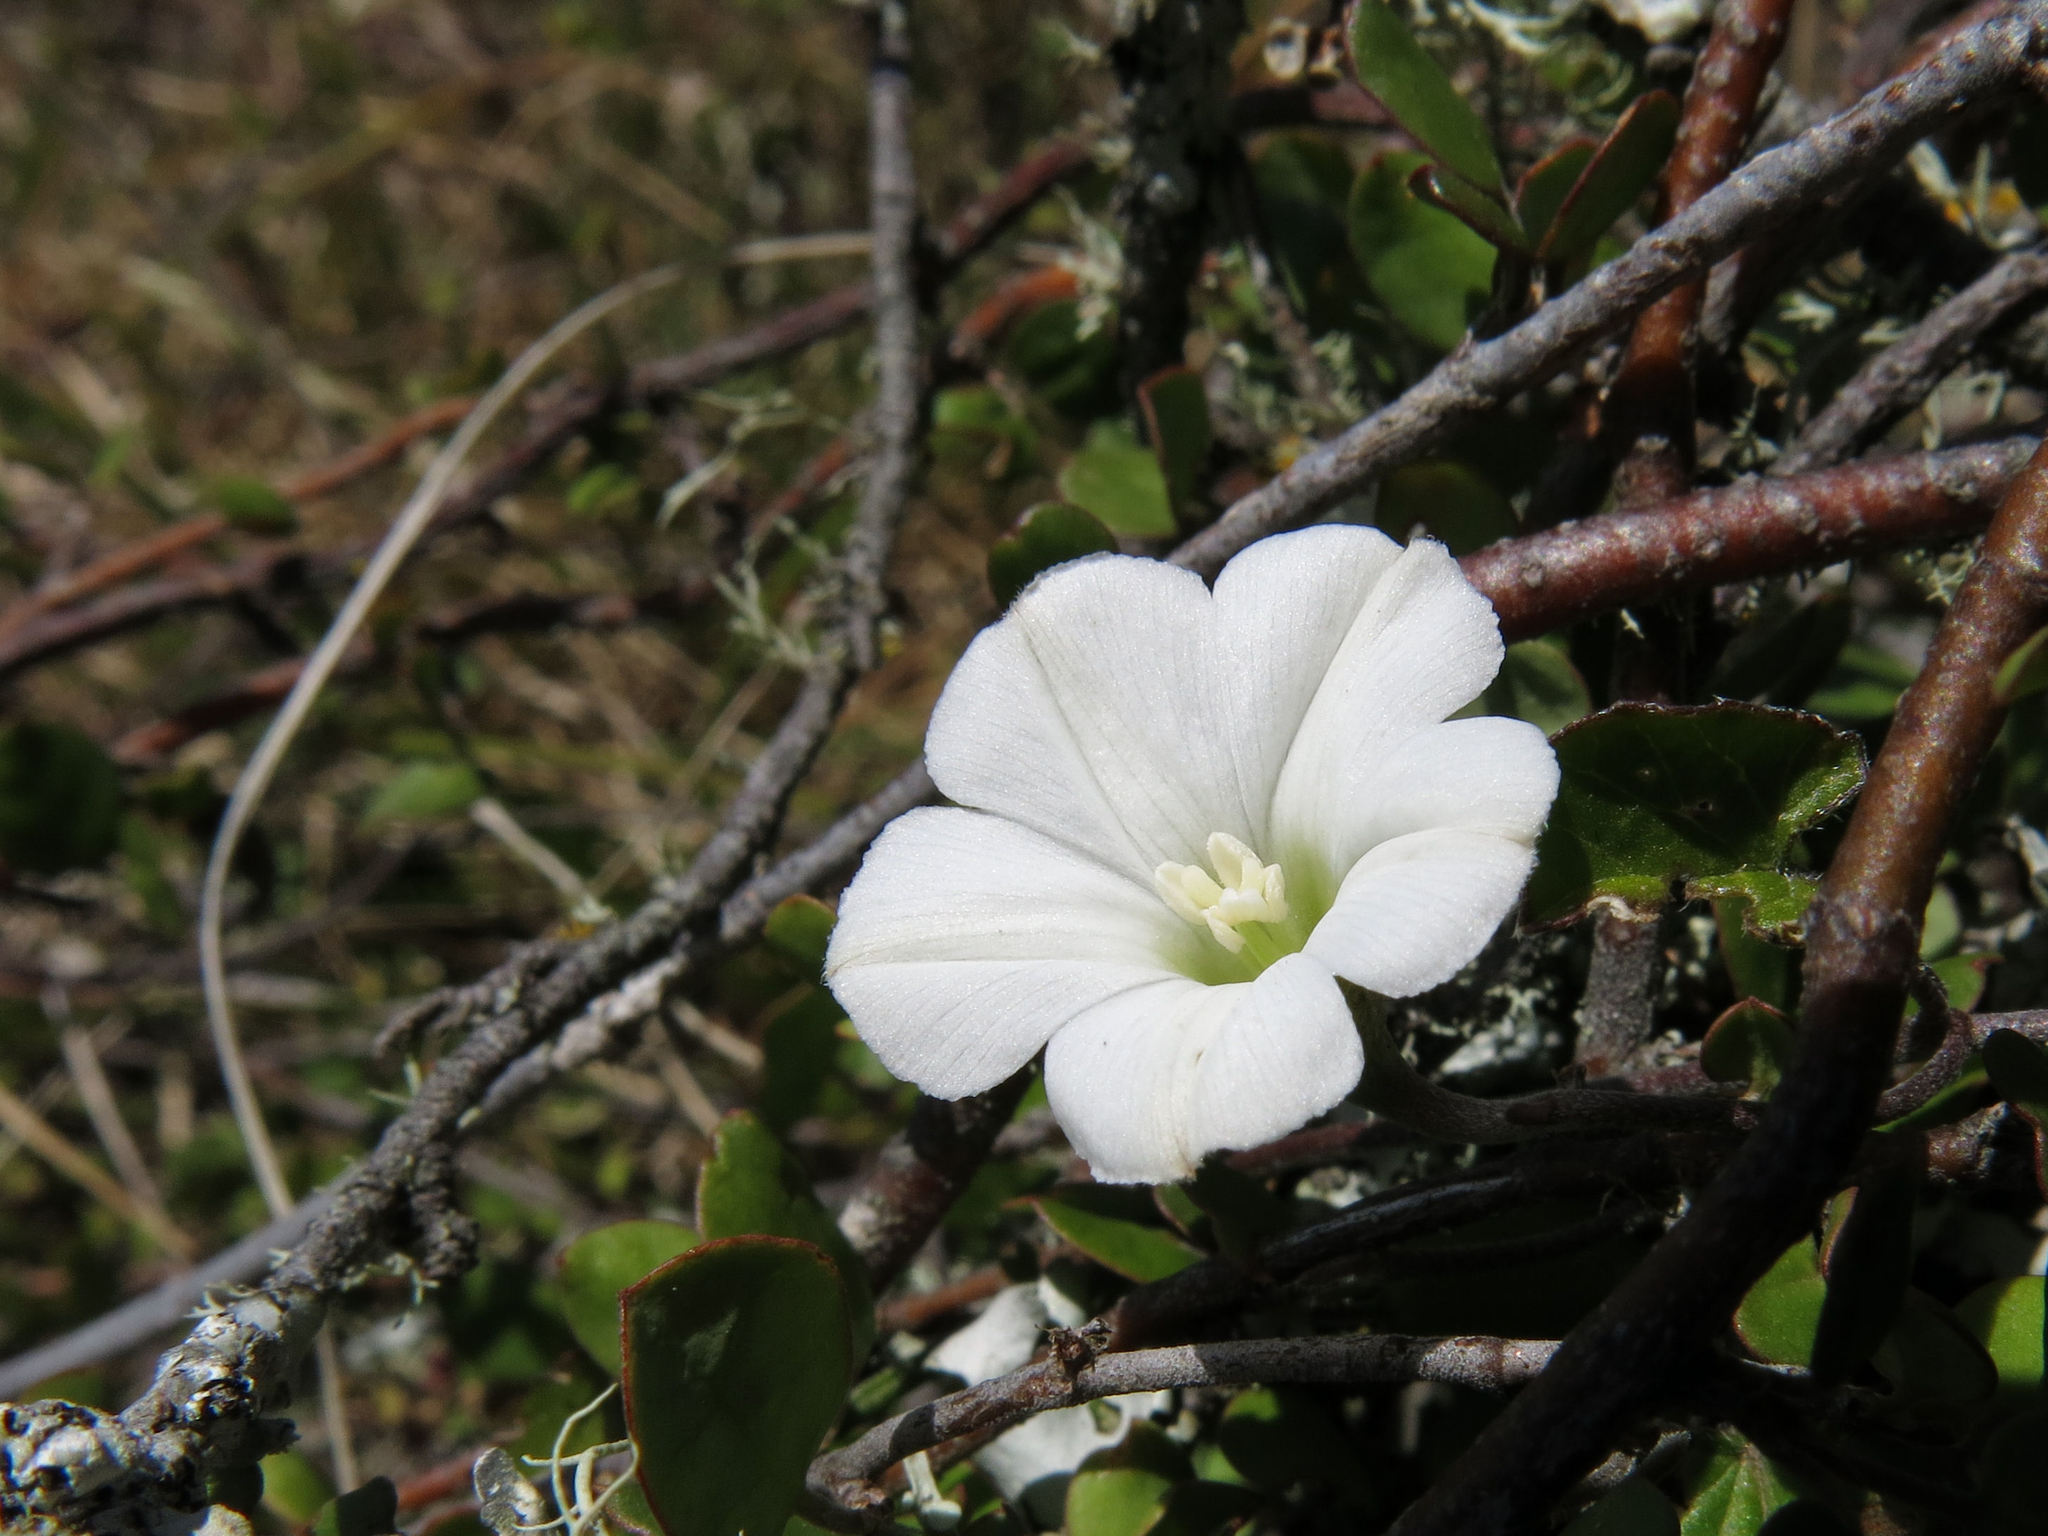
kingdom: Plantae
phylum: Tracheophyta
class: Magnoliopsida
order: Solanales
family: Convolvulaceae
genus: Convolvulus
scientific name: Convolvulus waitaha
